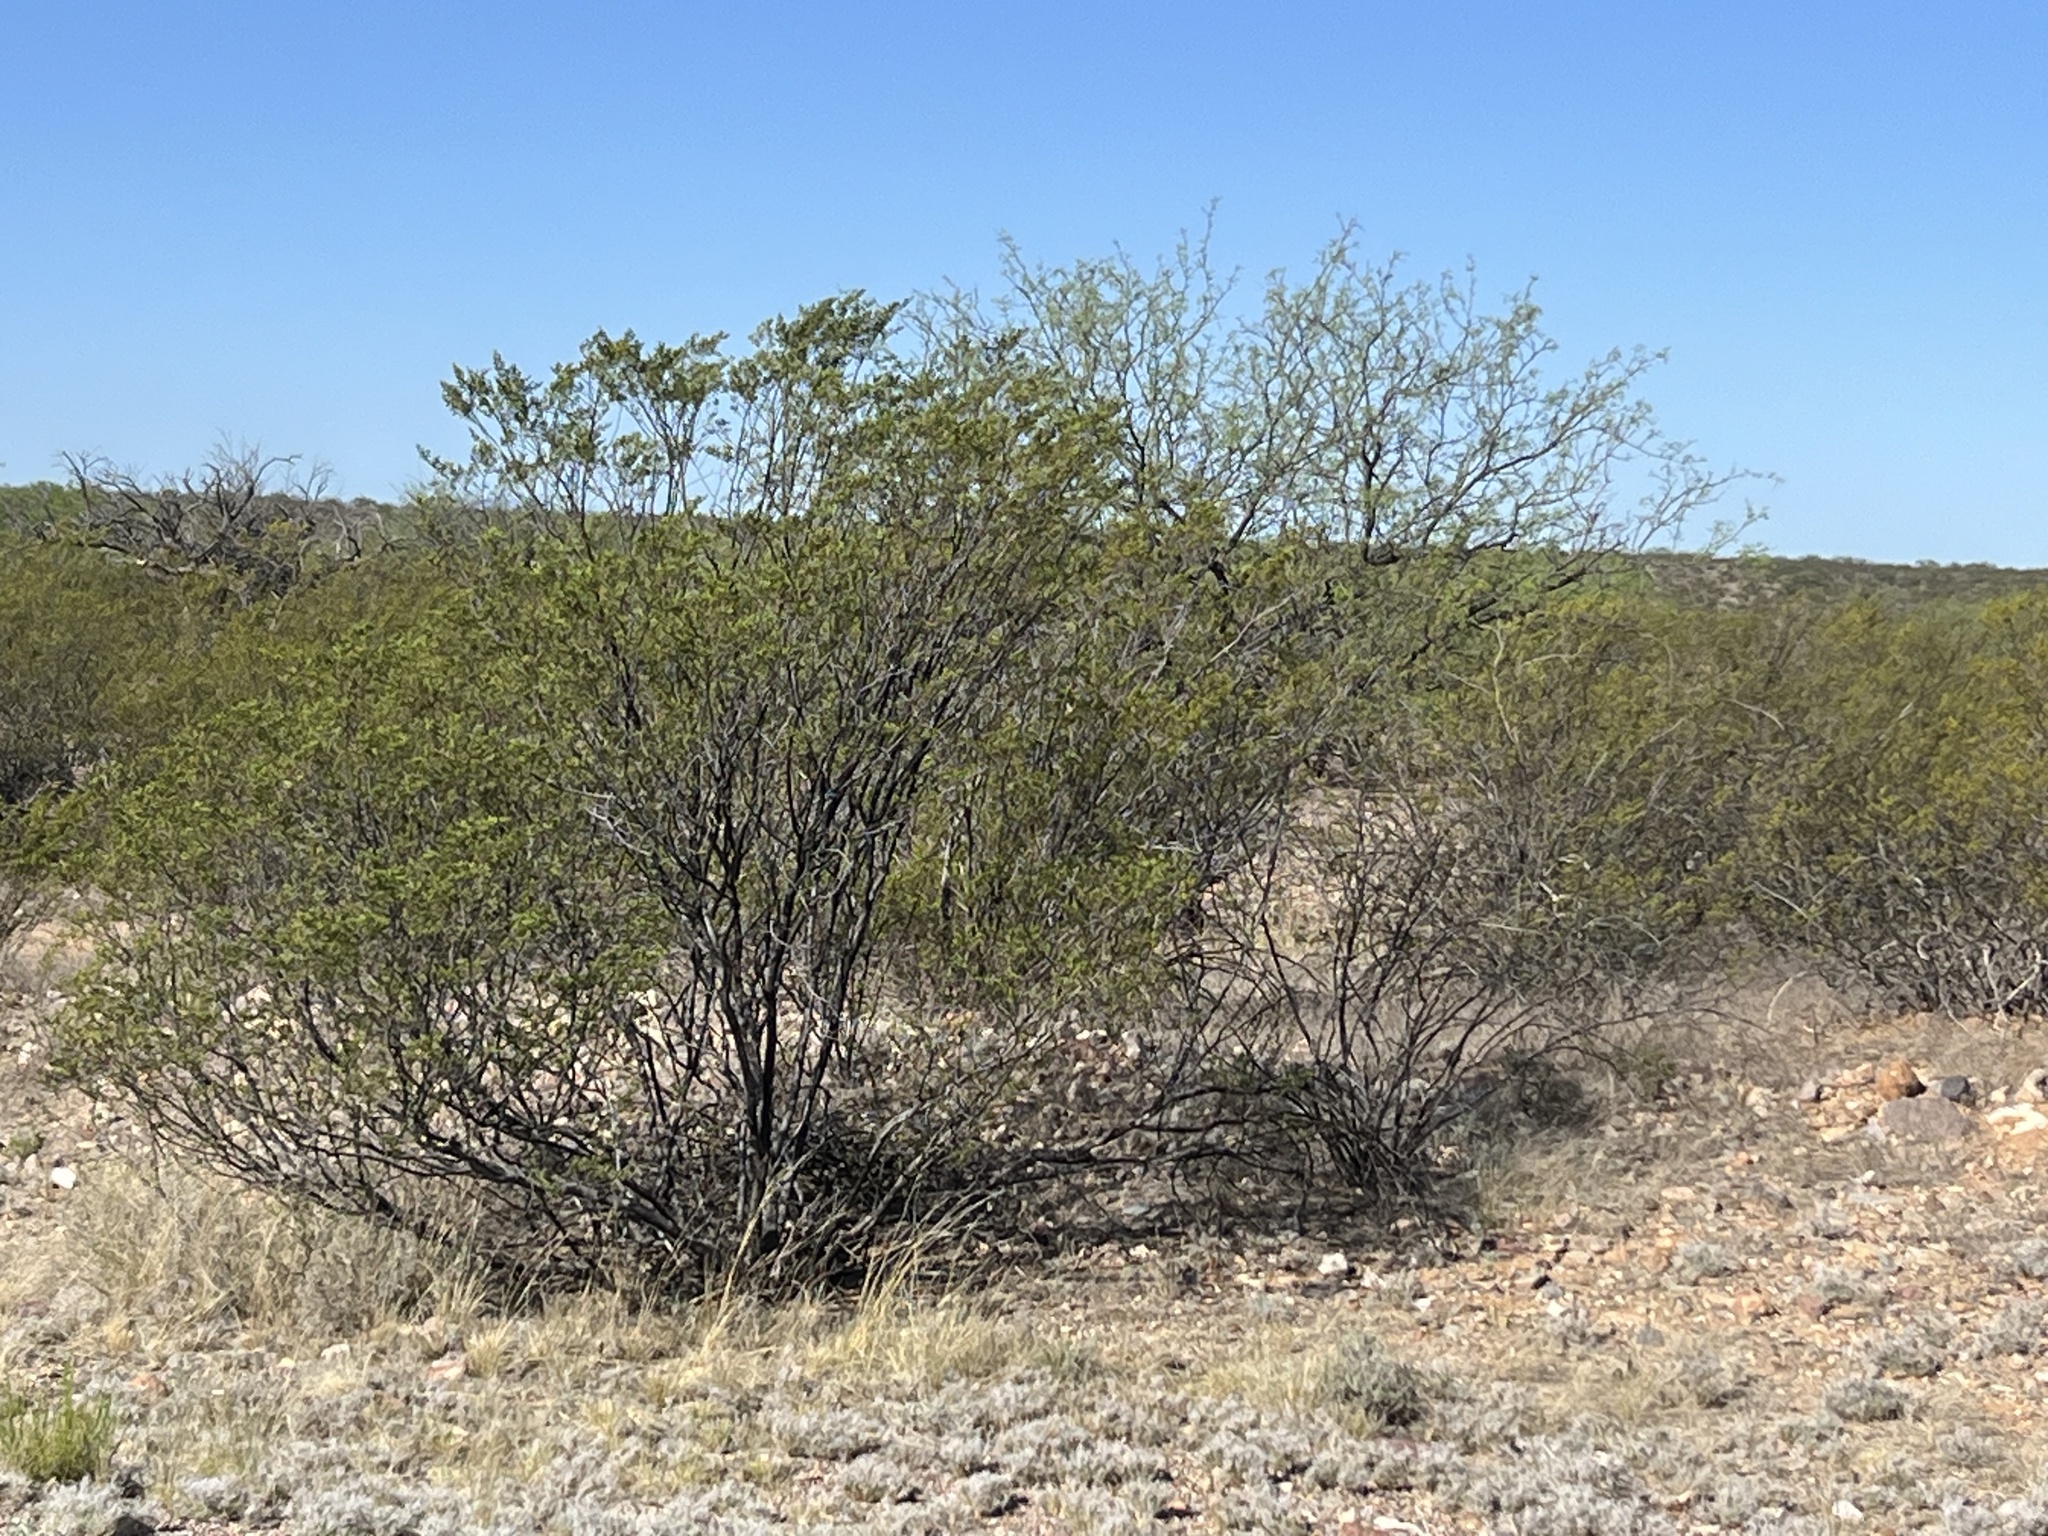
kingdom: Plantae
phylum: Tracheophyta
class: Magnoliopsida
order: Zygophyllales
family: Zygophyllaceae
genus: Larrea
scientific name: Larrea tridentata
